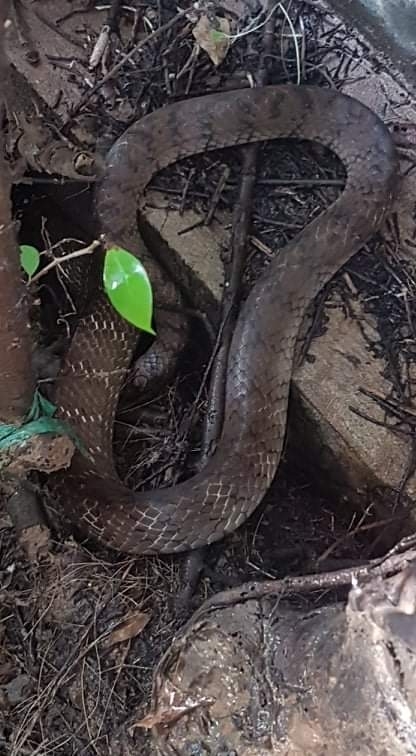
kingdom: Animalia
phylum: Chordata
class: Squamata
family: Colubridae
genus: Ptyas
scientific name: Ptyas mucosa
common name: Oriental ratsnake
